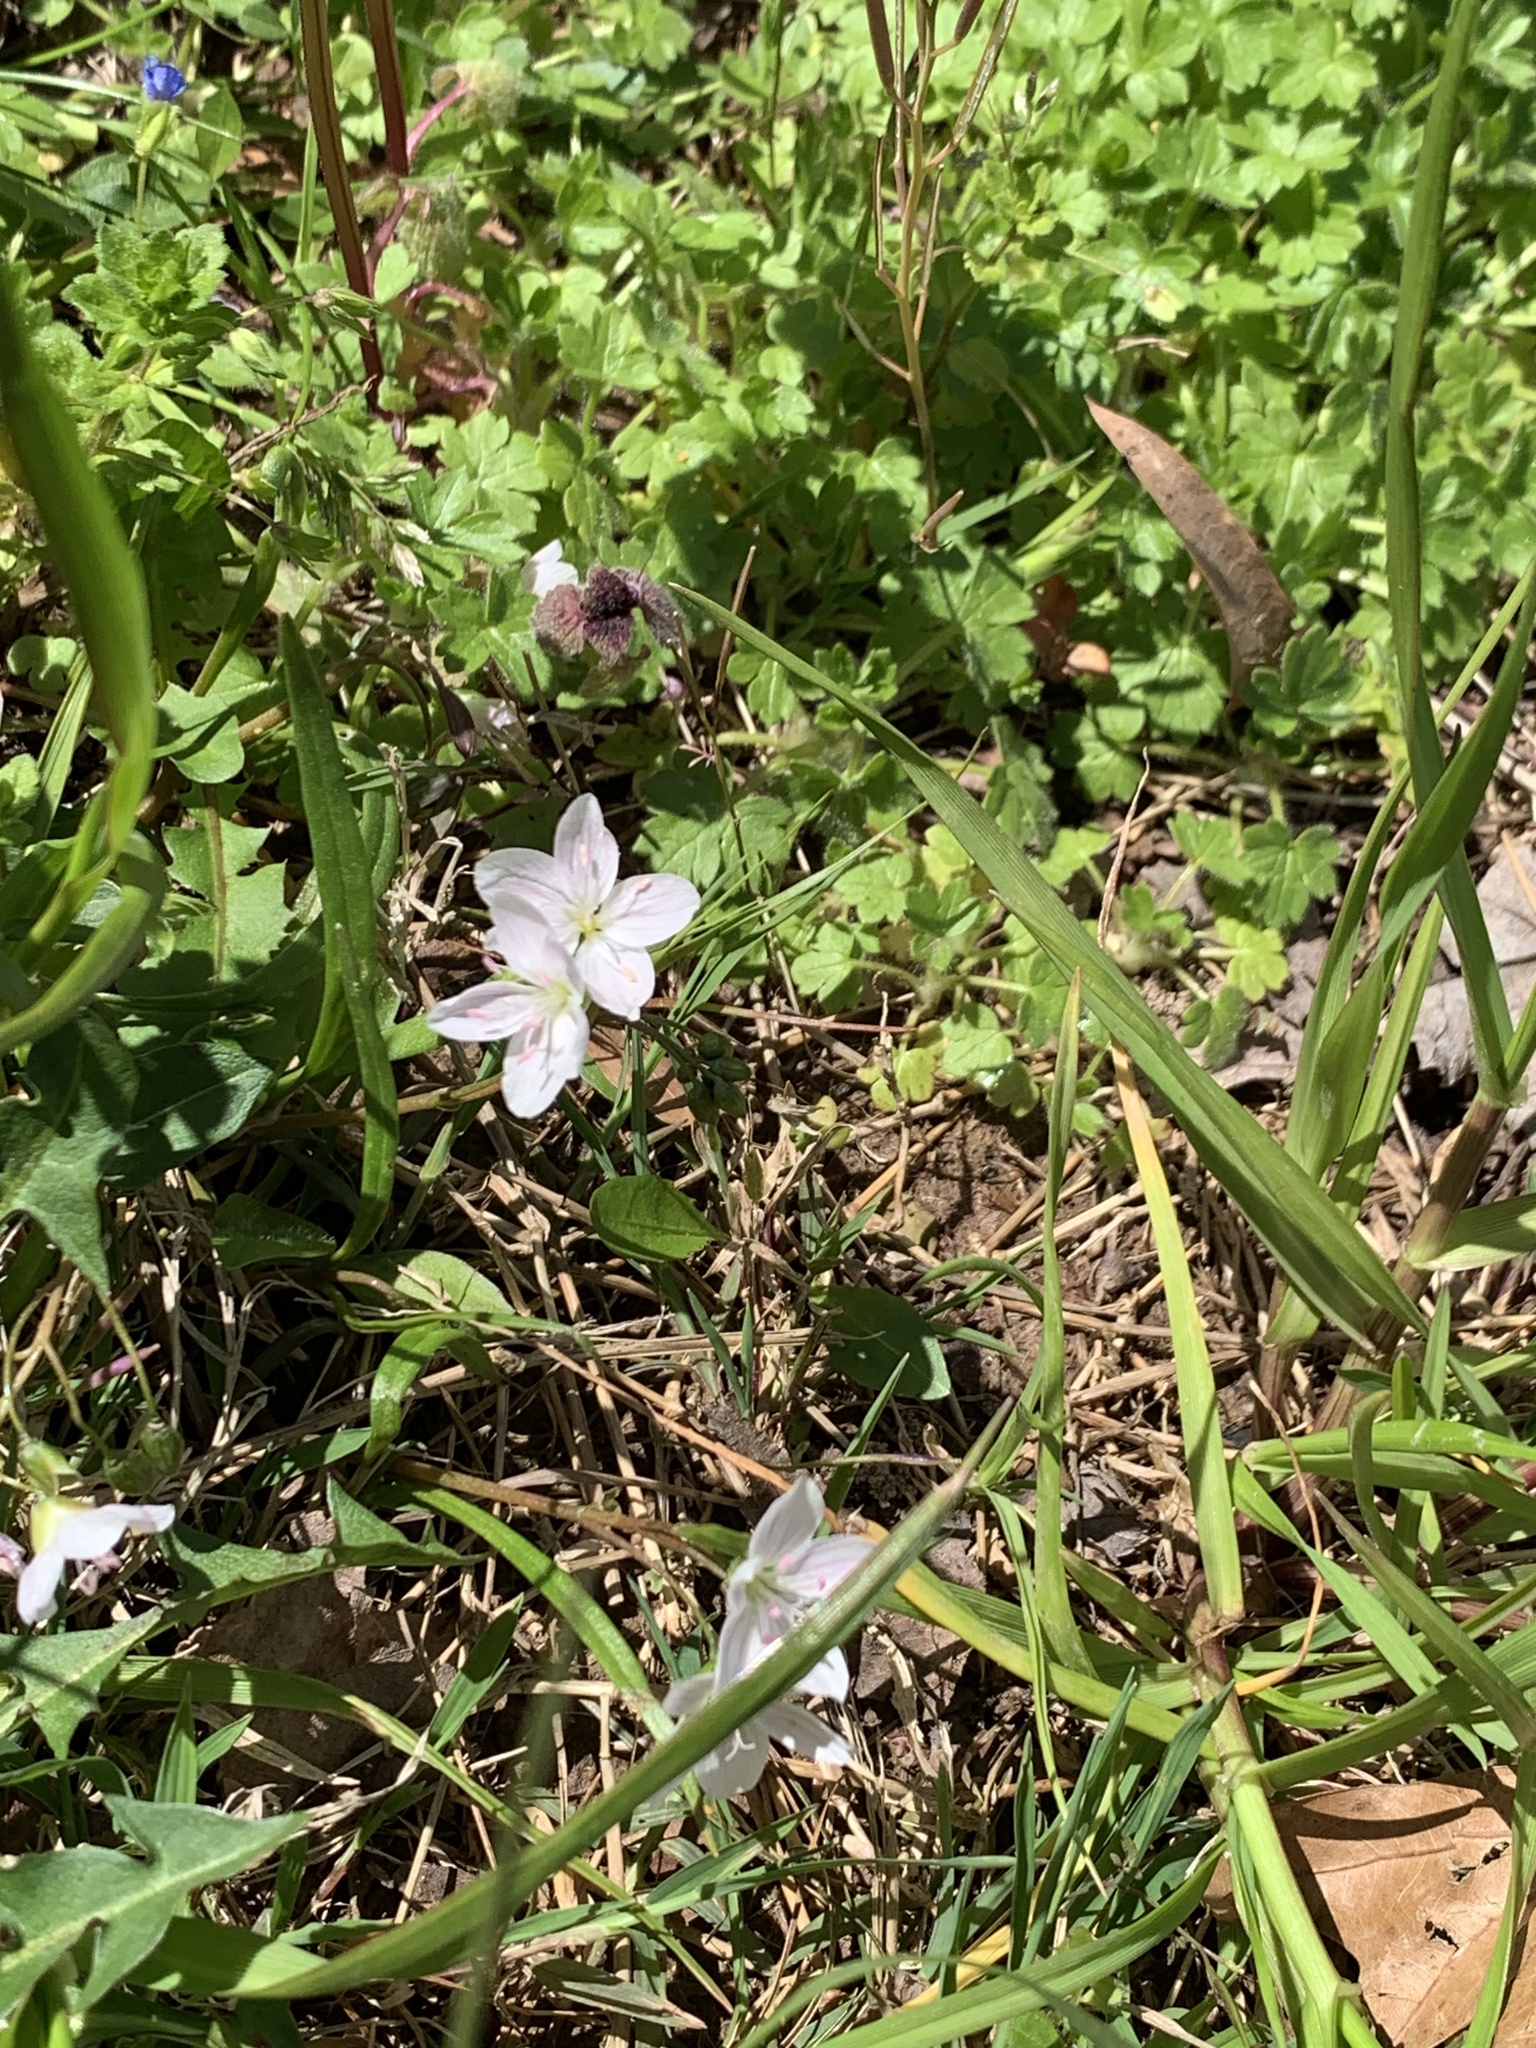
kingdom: Plantae
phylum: Tracheophyta
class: Magnoliopsida
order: Caryophyllales
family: Montiaceae
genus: Claytonia
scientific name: Claytonia virginica
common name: Virginia springbeauty
